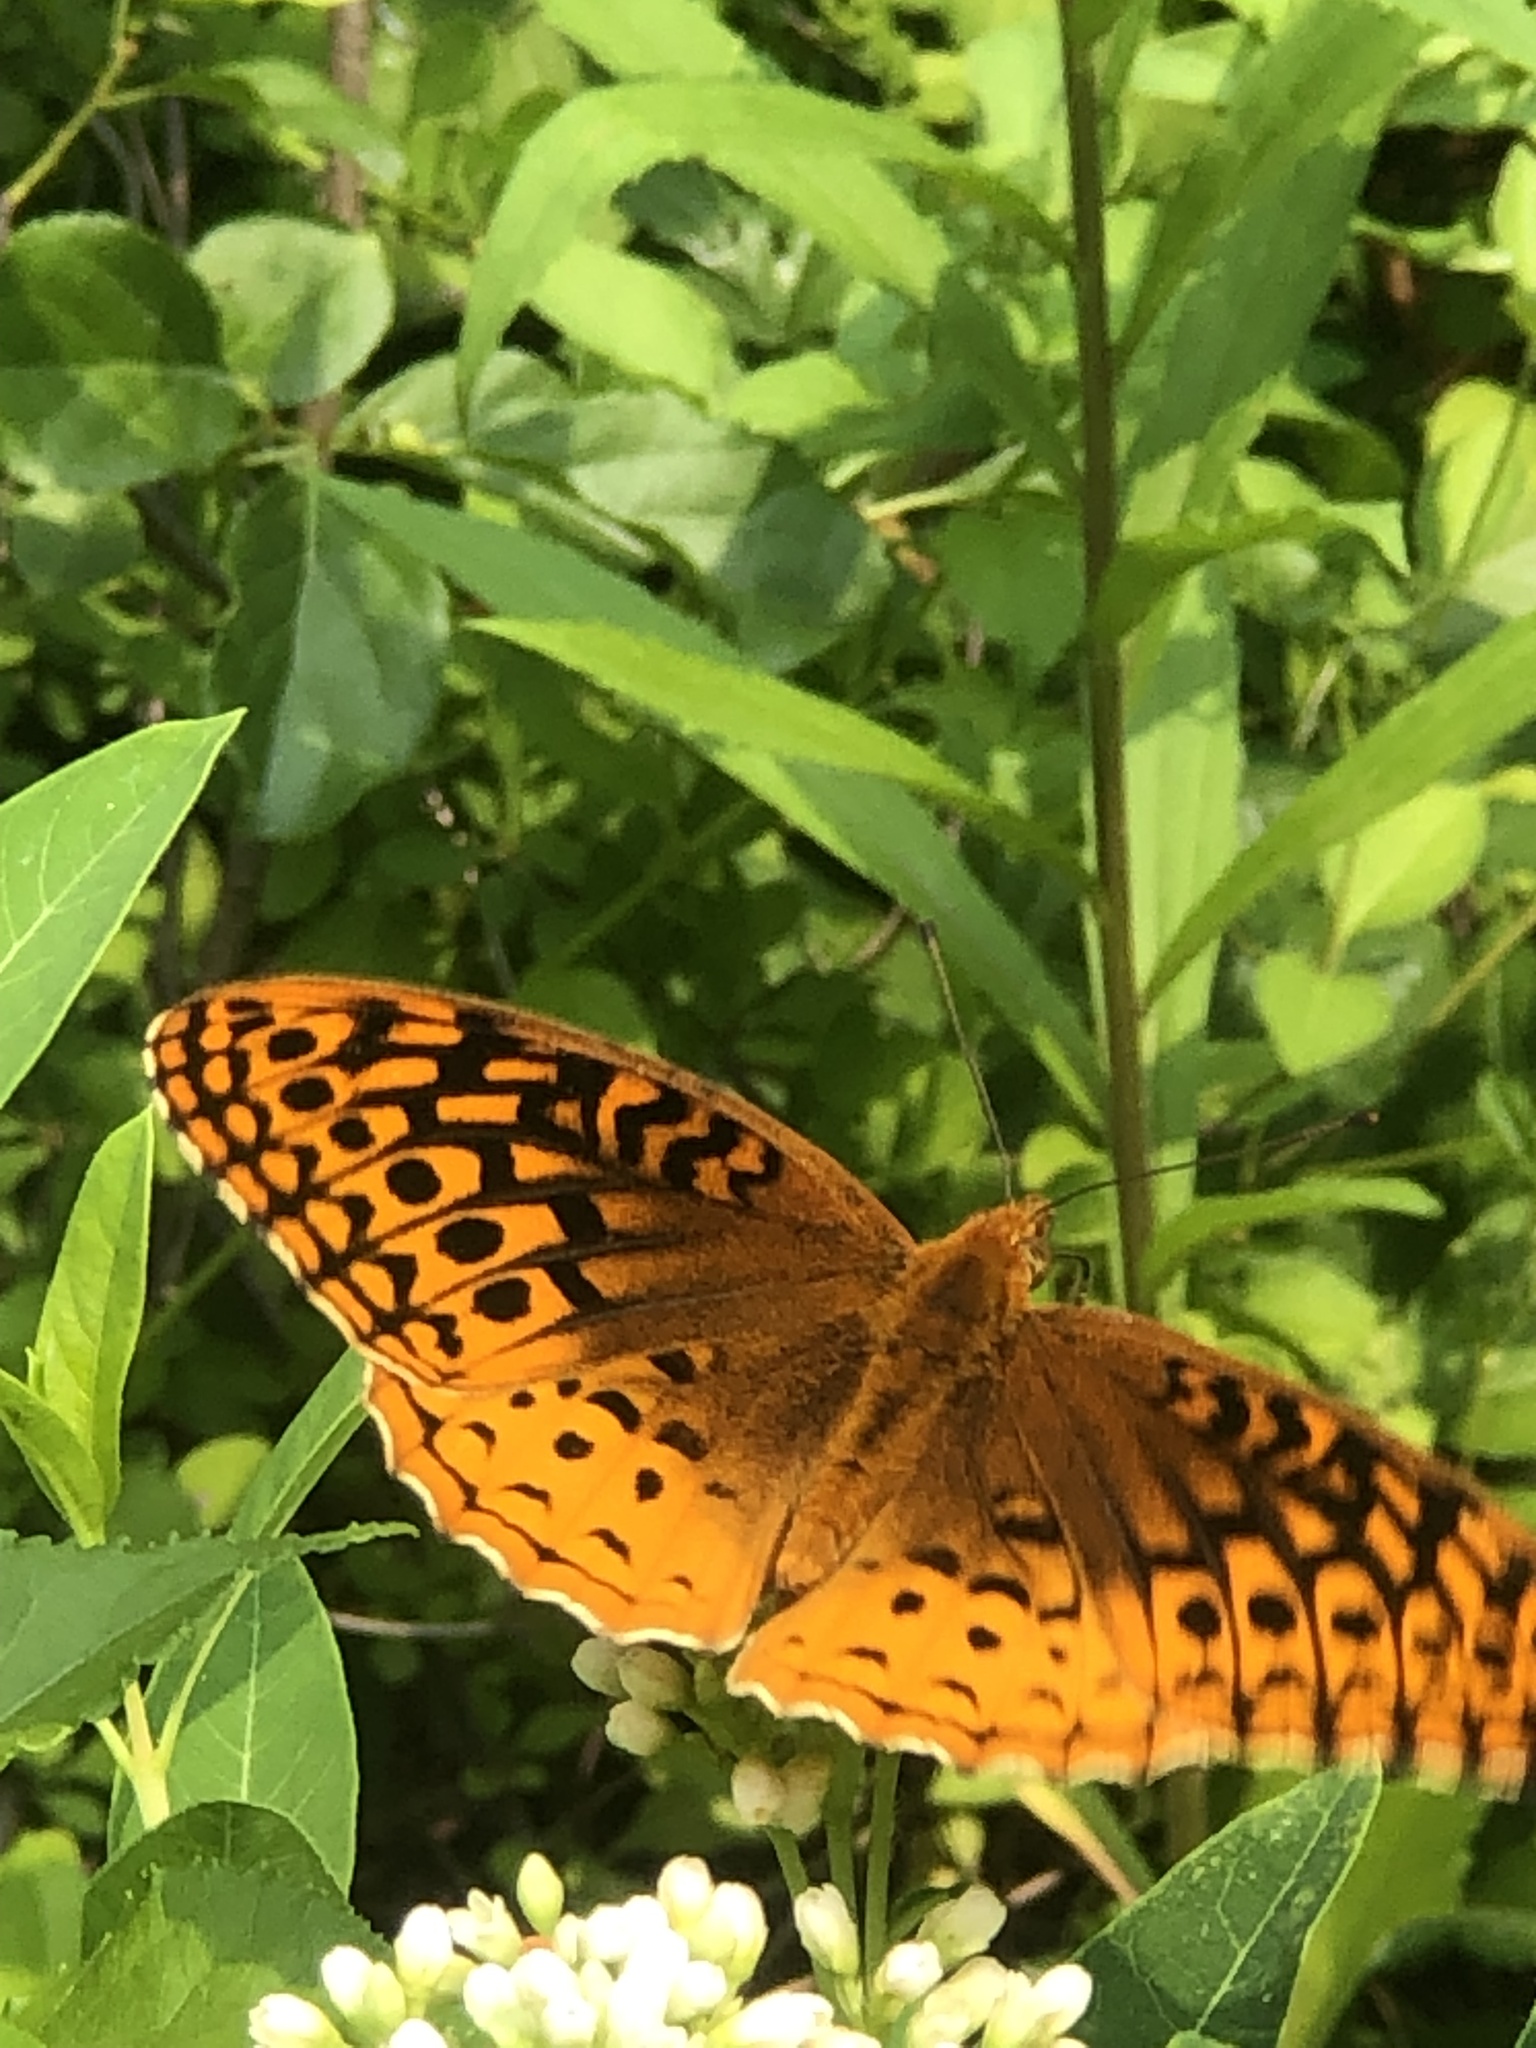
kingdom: Animalia
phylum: Arthropoda
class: Insecta
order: Lepidoptera
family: Nymphalidae
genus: Speyeria
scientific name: Speyeria cybele
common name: Great spangled fritillary
